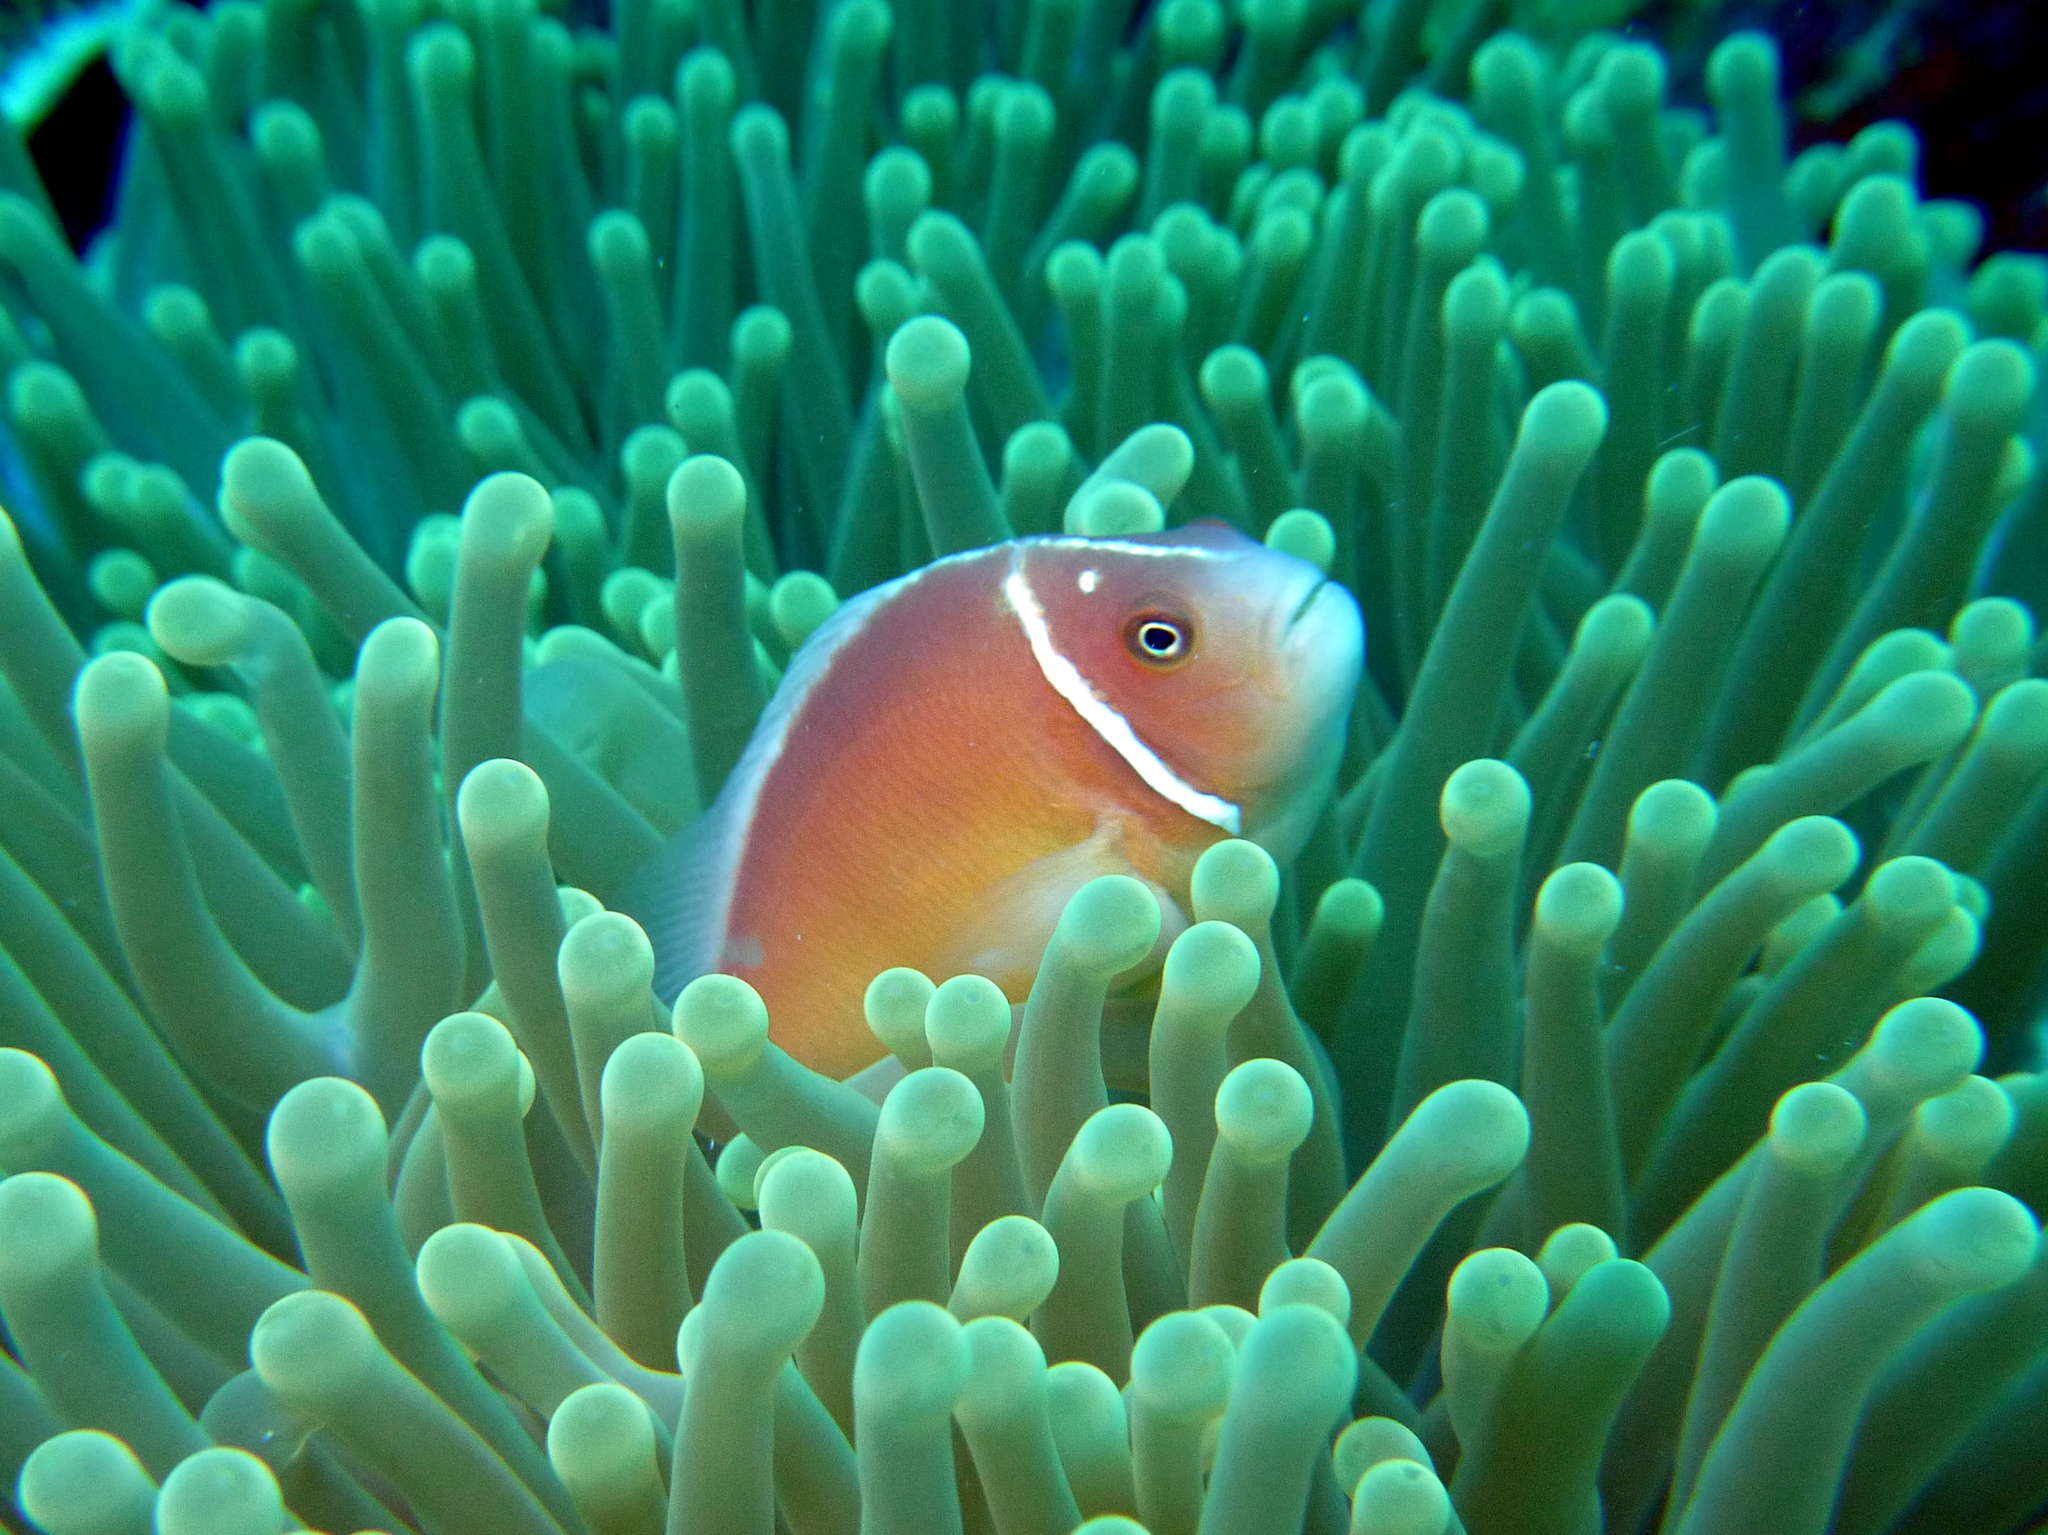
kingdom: Animalia
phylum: Chordata
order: Perciformes
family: Pomacentridae
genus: Amphiprion
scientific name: Amphiprion perideraion
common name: Pink anemonefish
